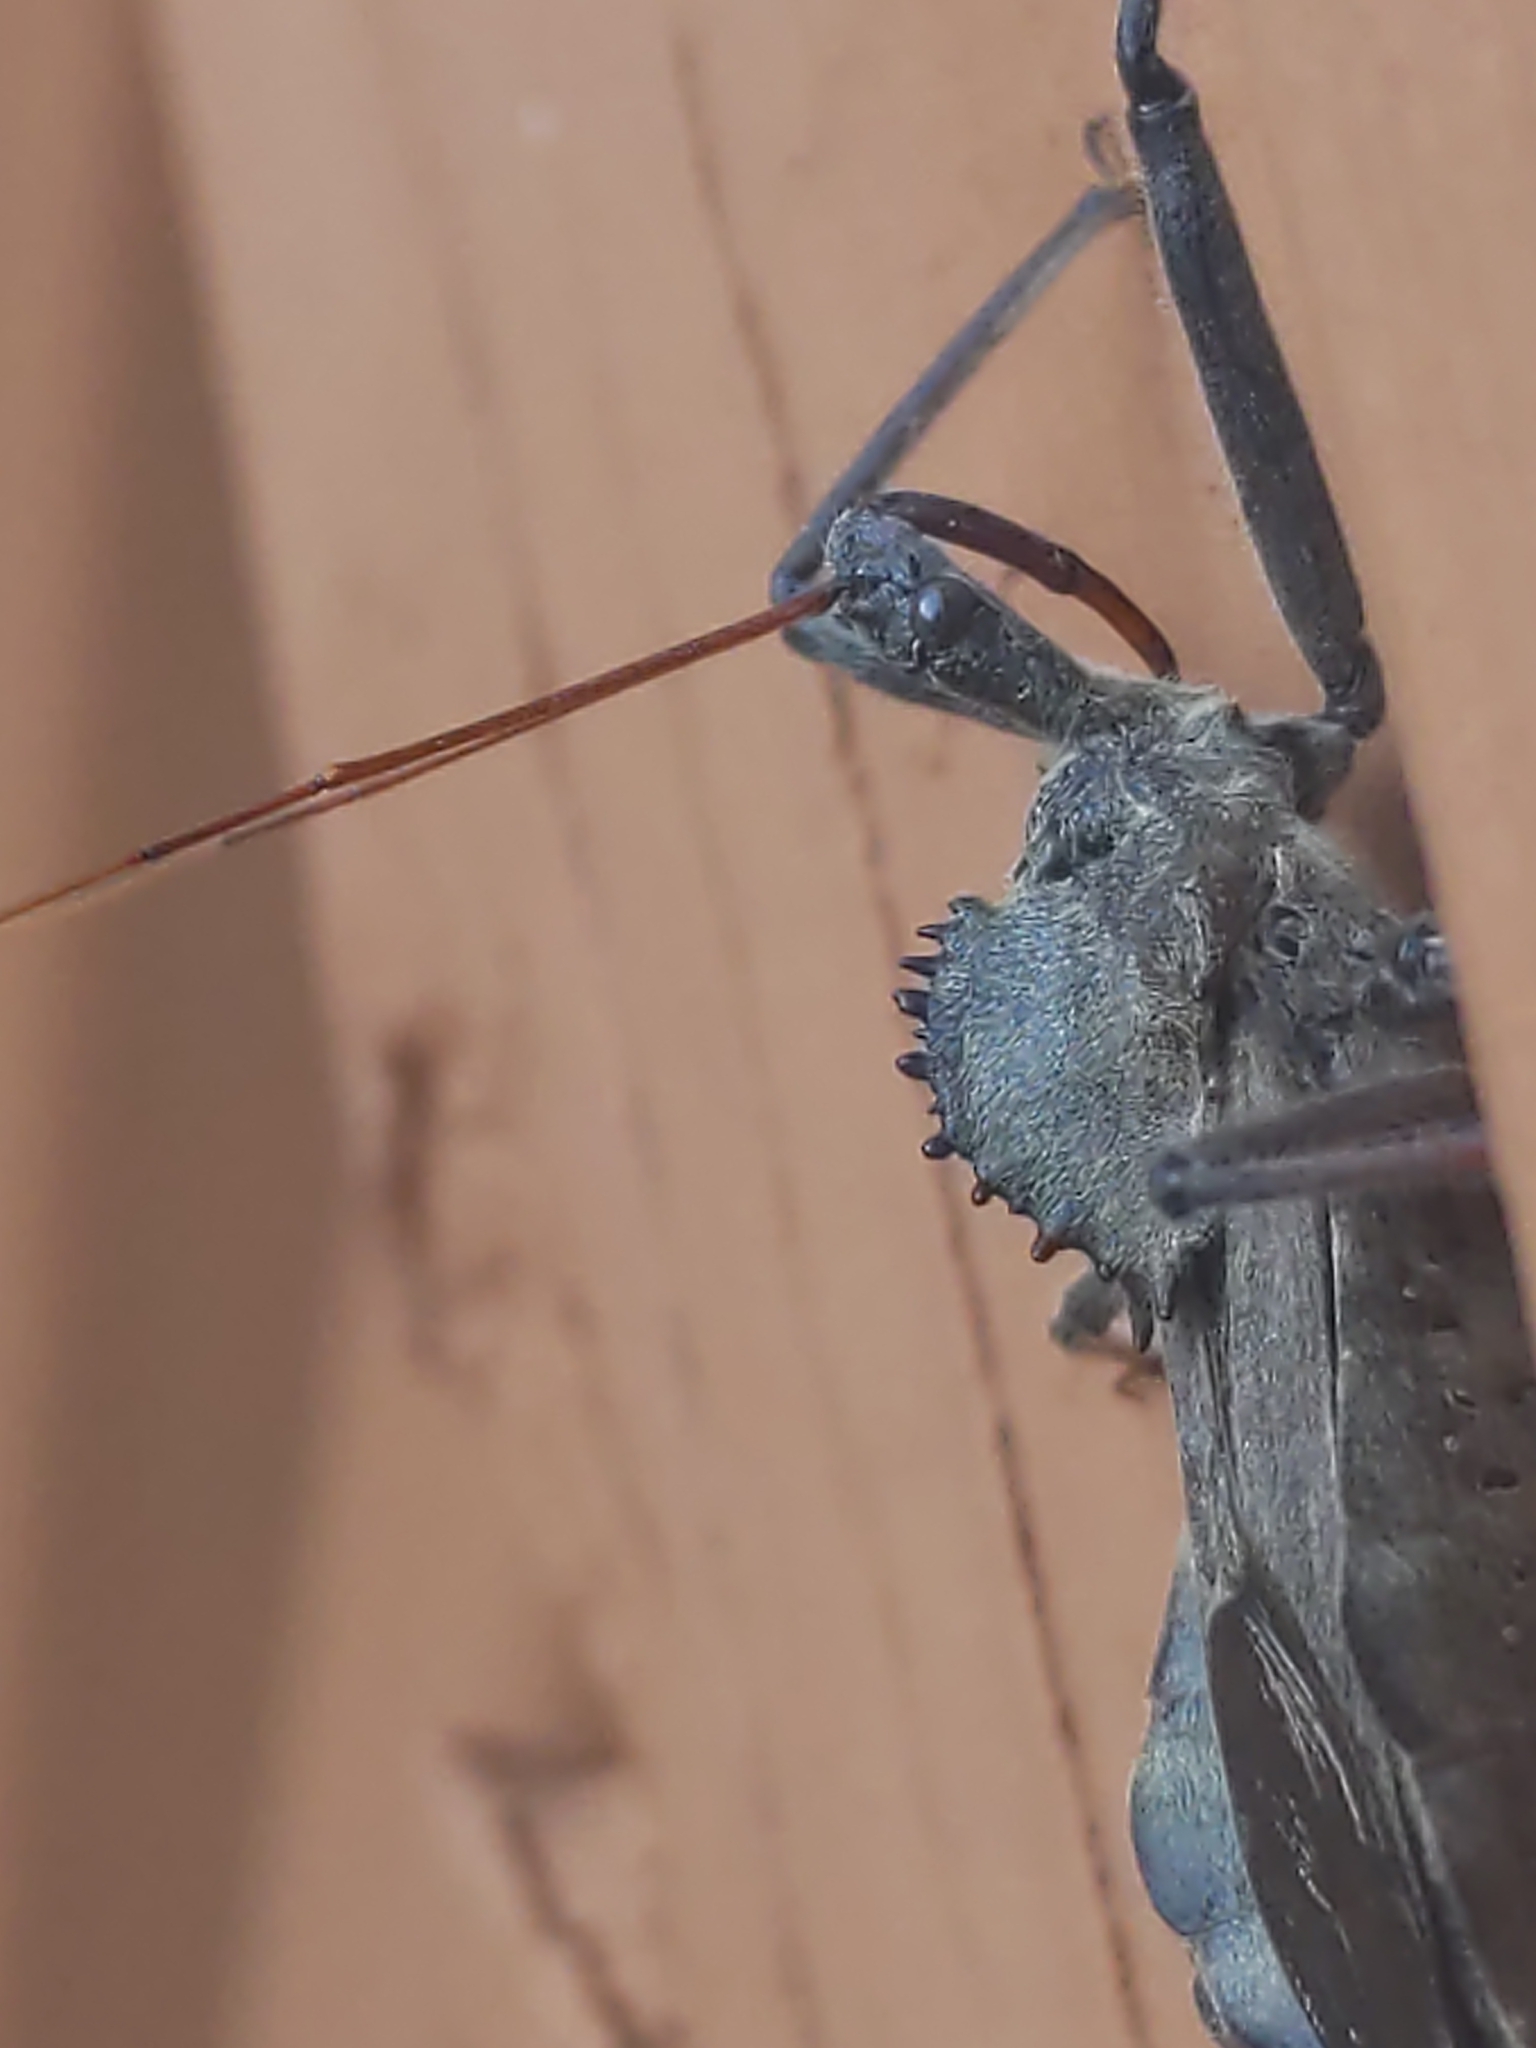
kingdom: Animalia
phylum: Arthropoda
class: Insecta
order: Hemiptera
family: Reduviidae
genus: Arilus
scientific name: Arilus cristatus
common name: North american wheel bug
